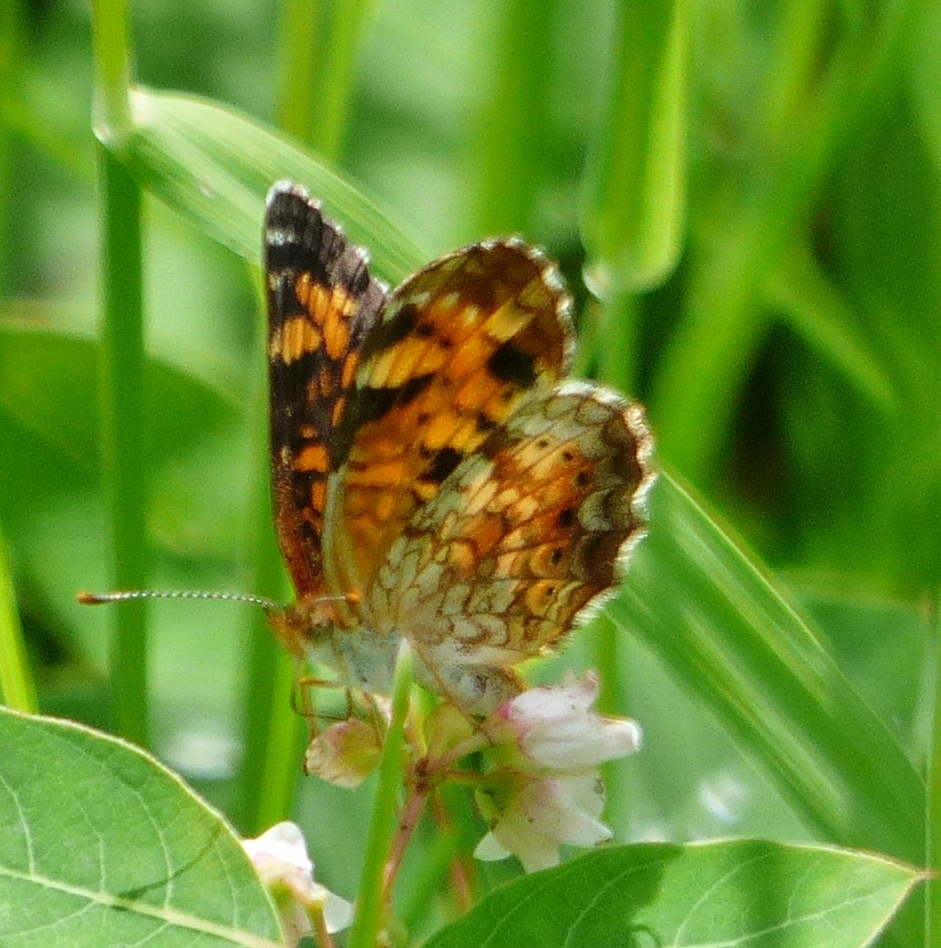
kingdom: Animalia
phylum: Arthropoda
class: Insecta
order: Lepidoptera
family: Nymphalidae
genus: Phyciodes
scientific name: Phyciodes tharos
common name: Pearl crescent
